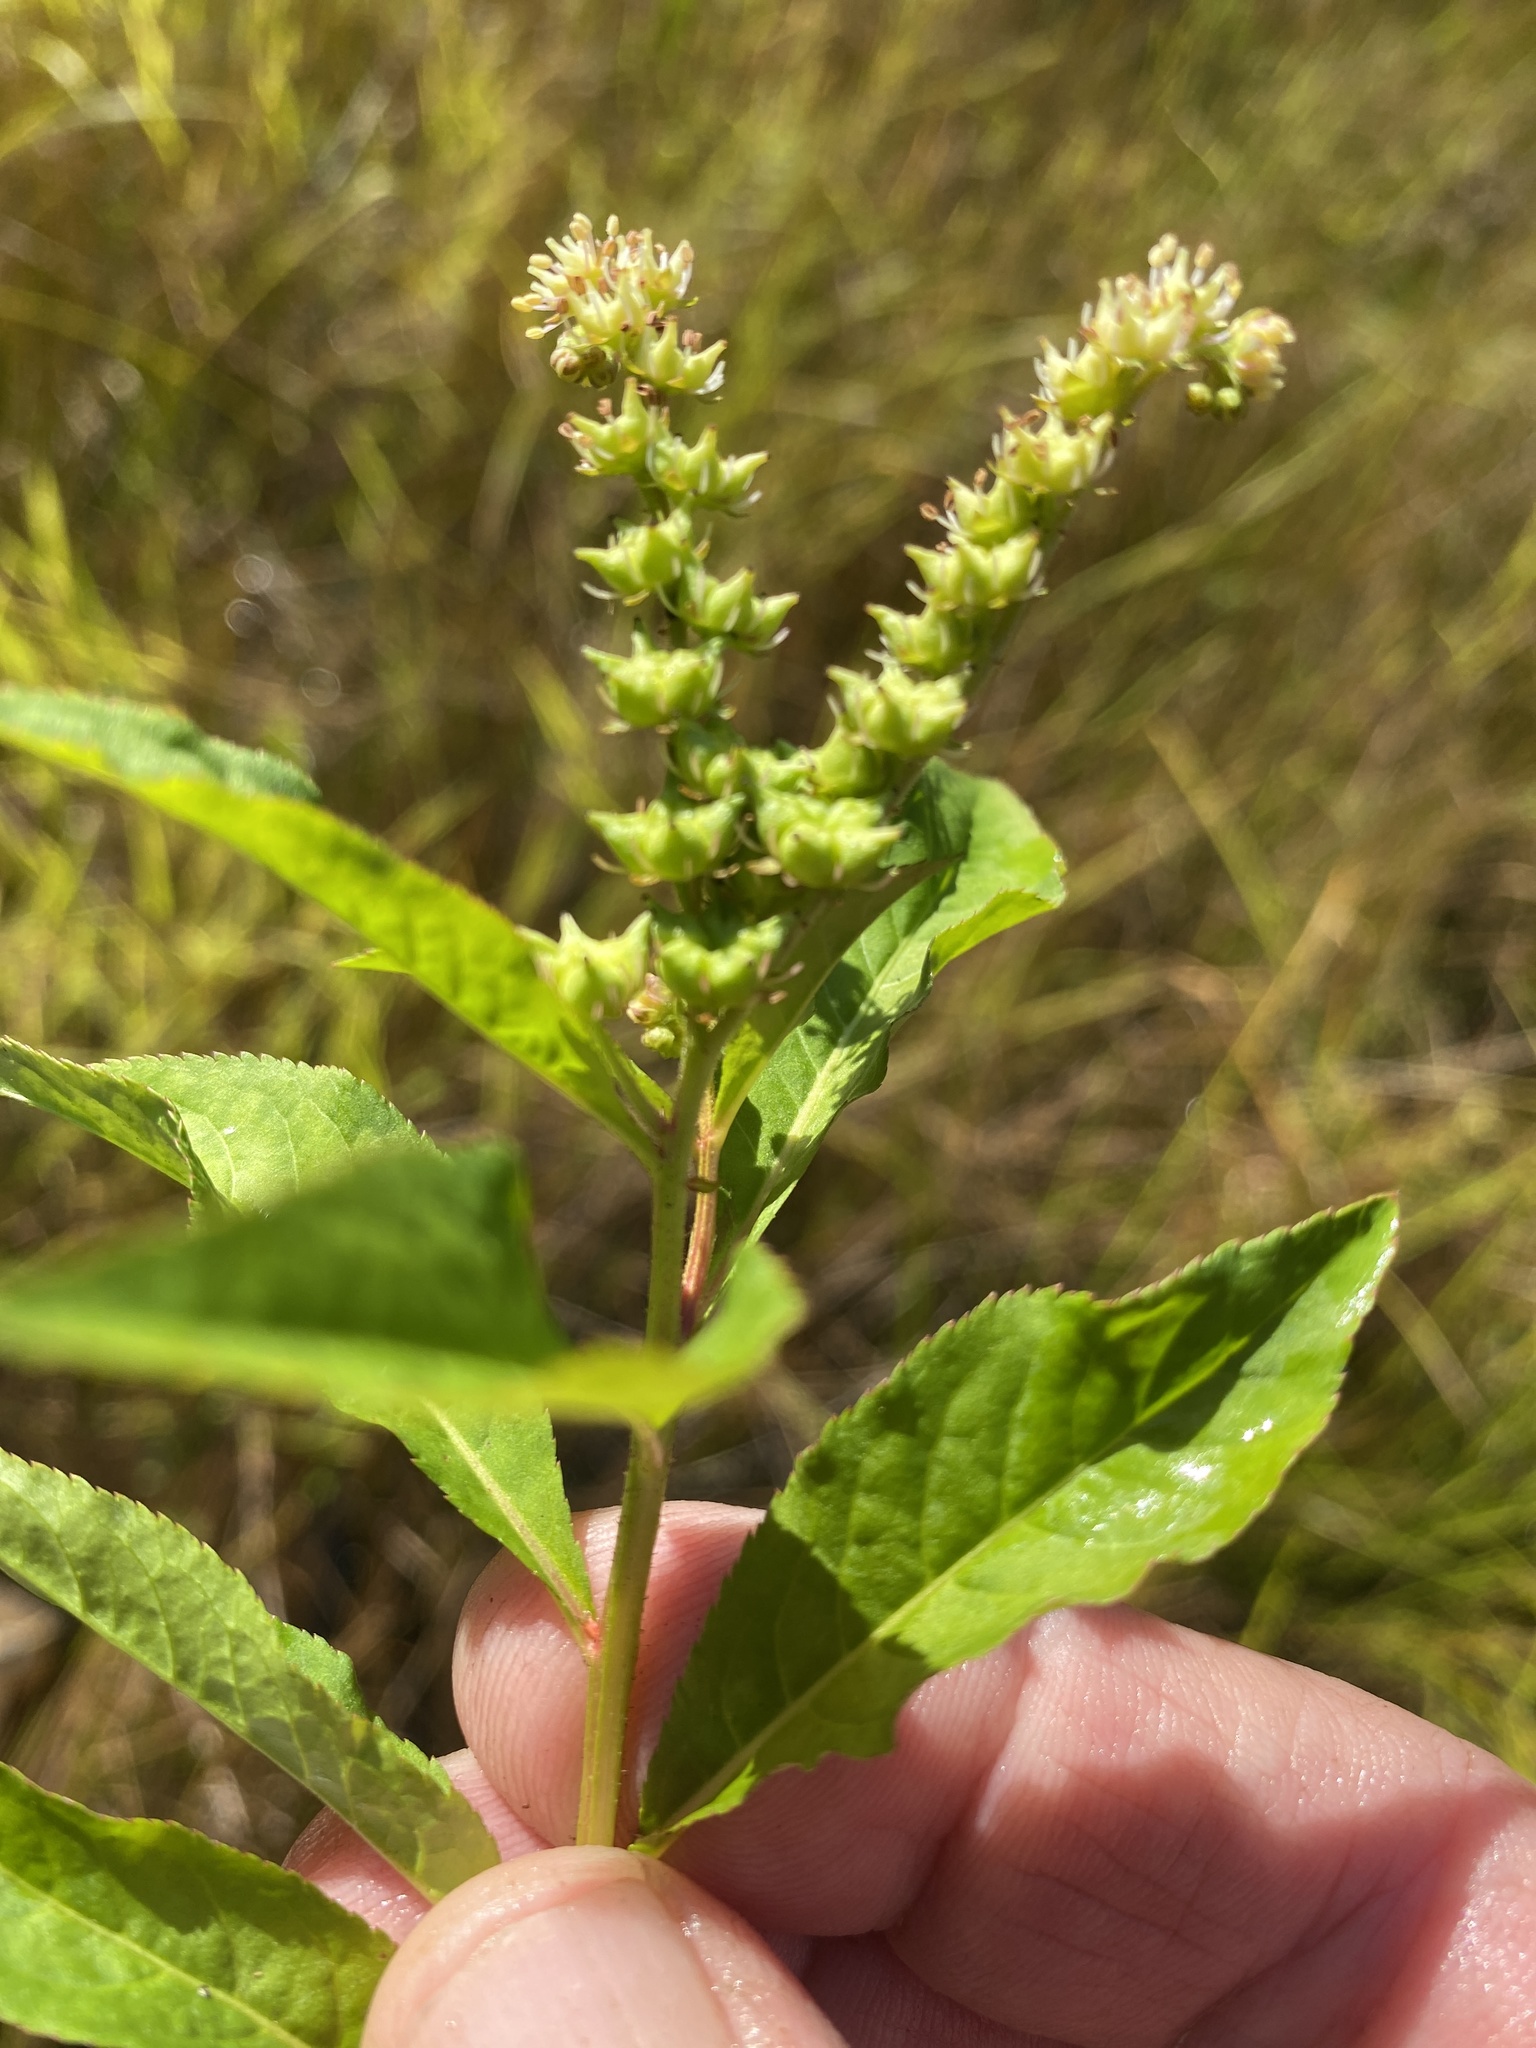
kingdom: Plantae
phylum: Tracheophyta
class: Magnoliopsida
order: Saxifragales
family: Penthoraceae
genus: Penthorum
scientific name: Penthorum sedoides
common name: Ditch stonecrop
